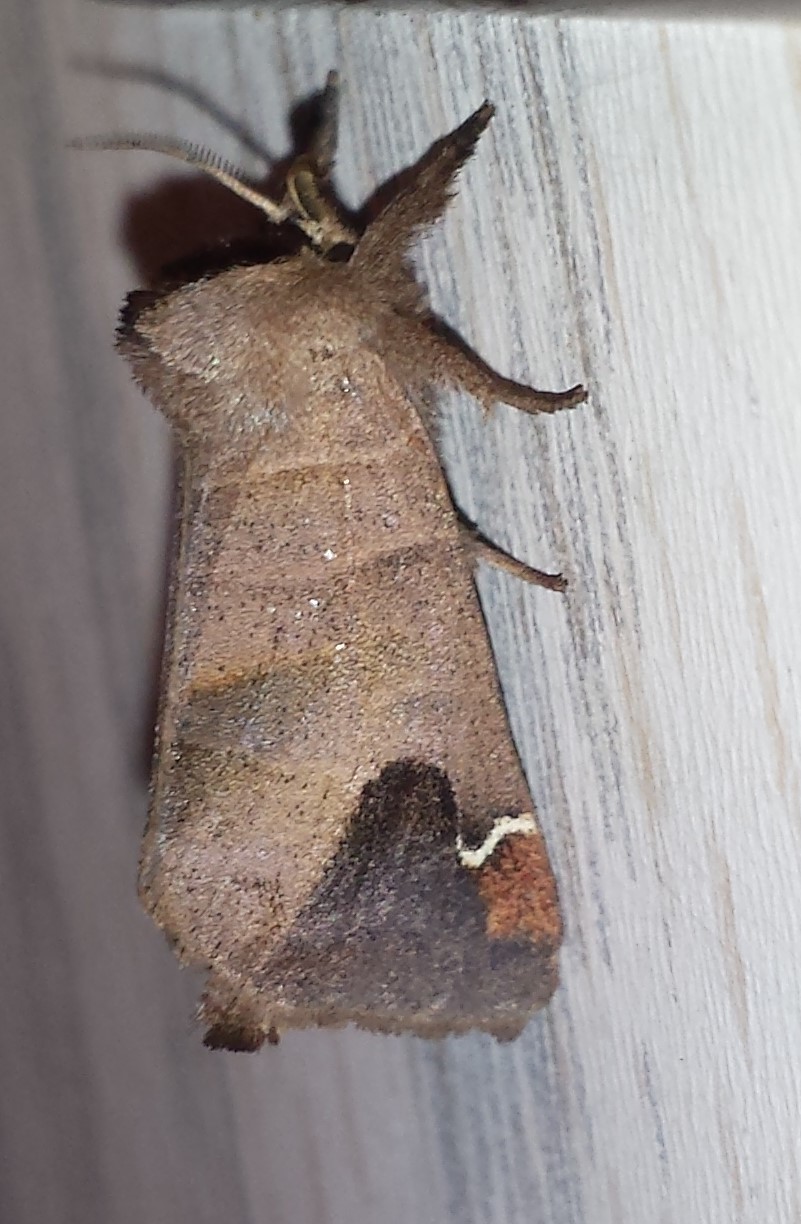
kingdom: Animalia
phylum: Arthropoda
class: Insecta
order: Lepidoptera
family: Notodontidae
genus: Clostera
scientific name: Clostera albosigma
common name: Sigmoid prominent
